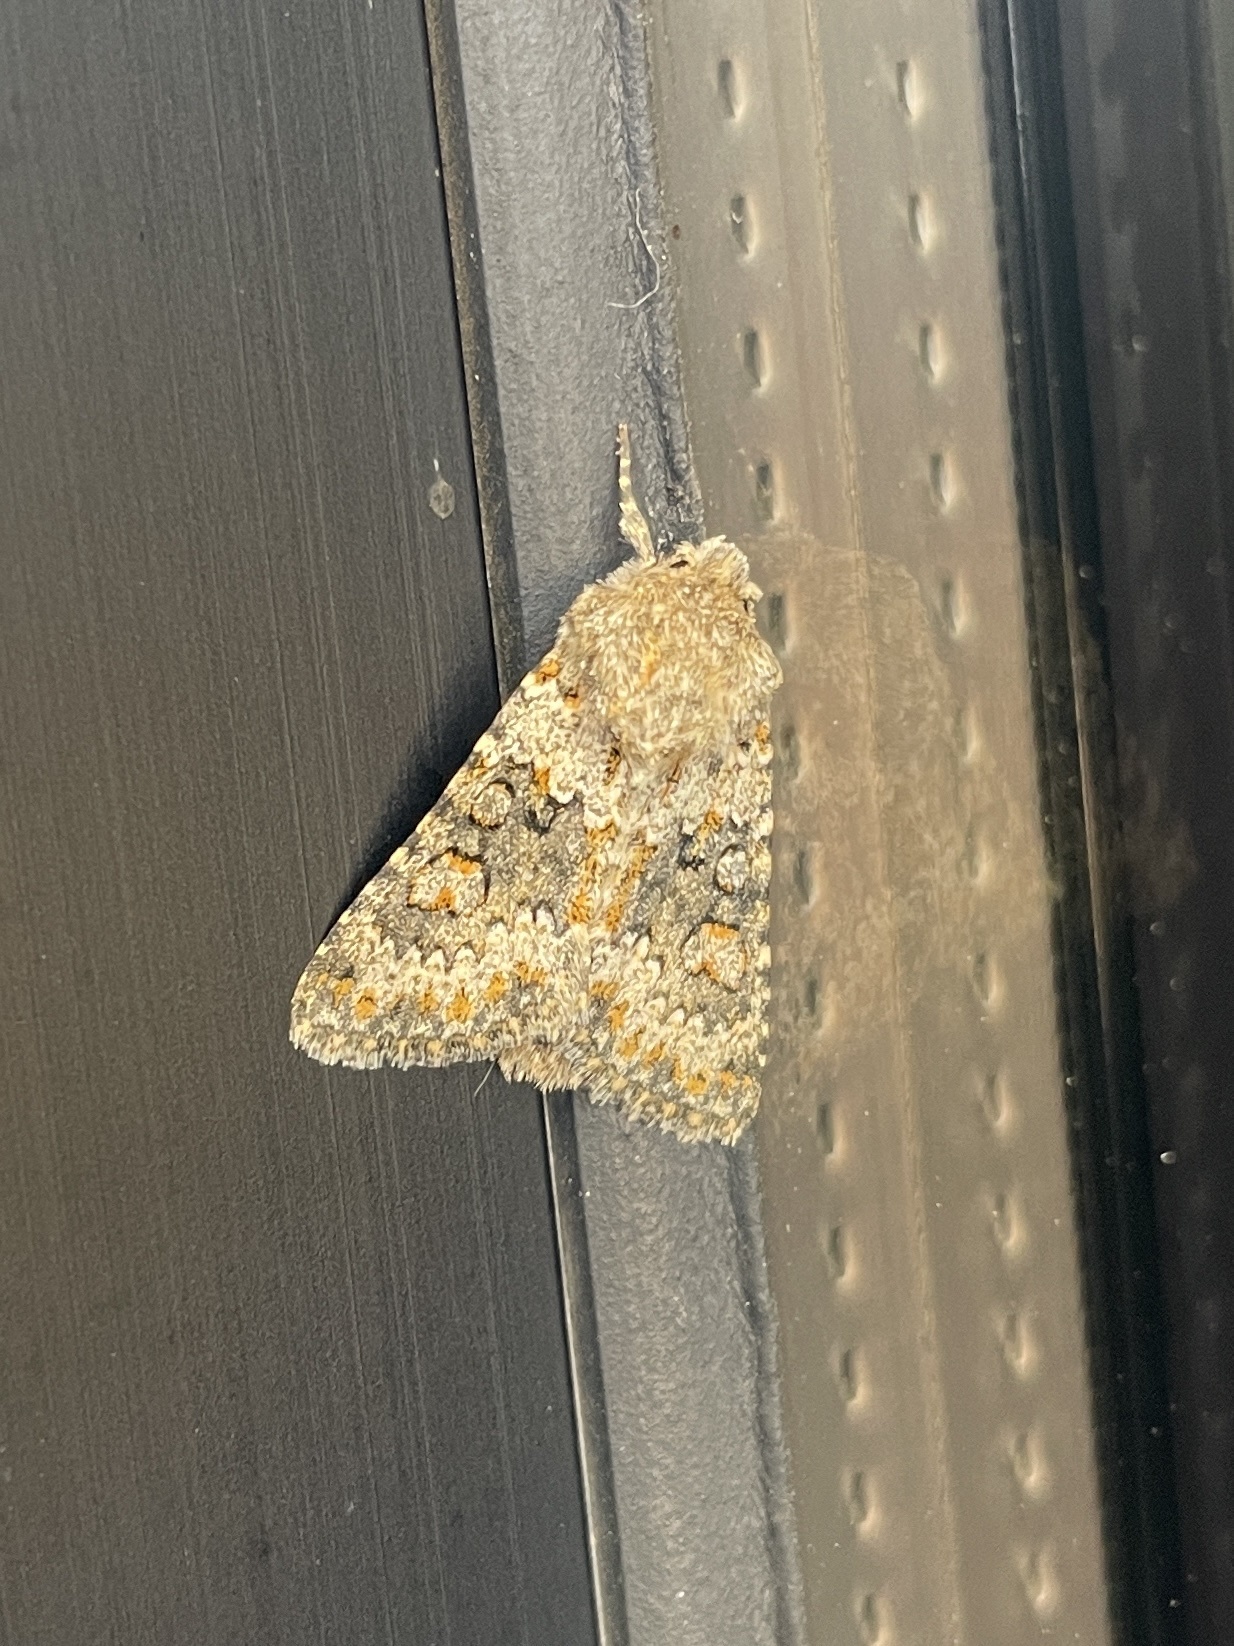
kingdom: Animalia
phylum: Arthropoda
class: Insecta
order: Lepidoptera
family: Noctuidae
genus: Hecatera
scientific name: Hecatera dysodea
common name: Small ranunculus
